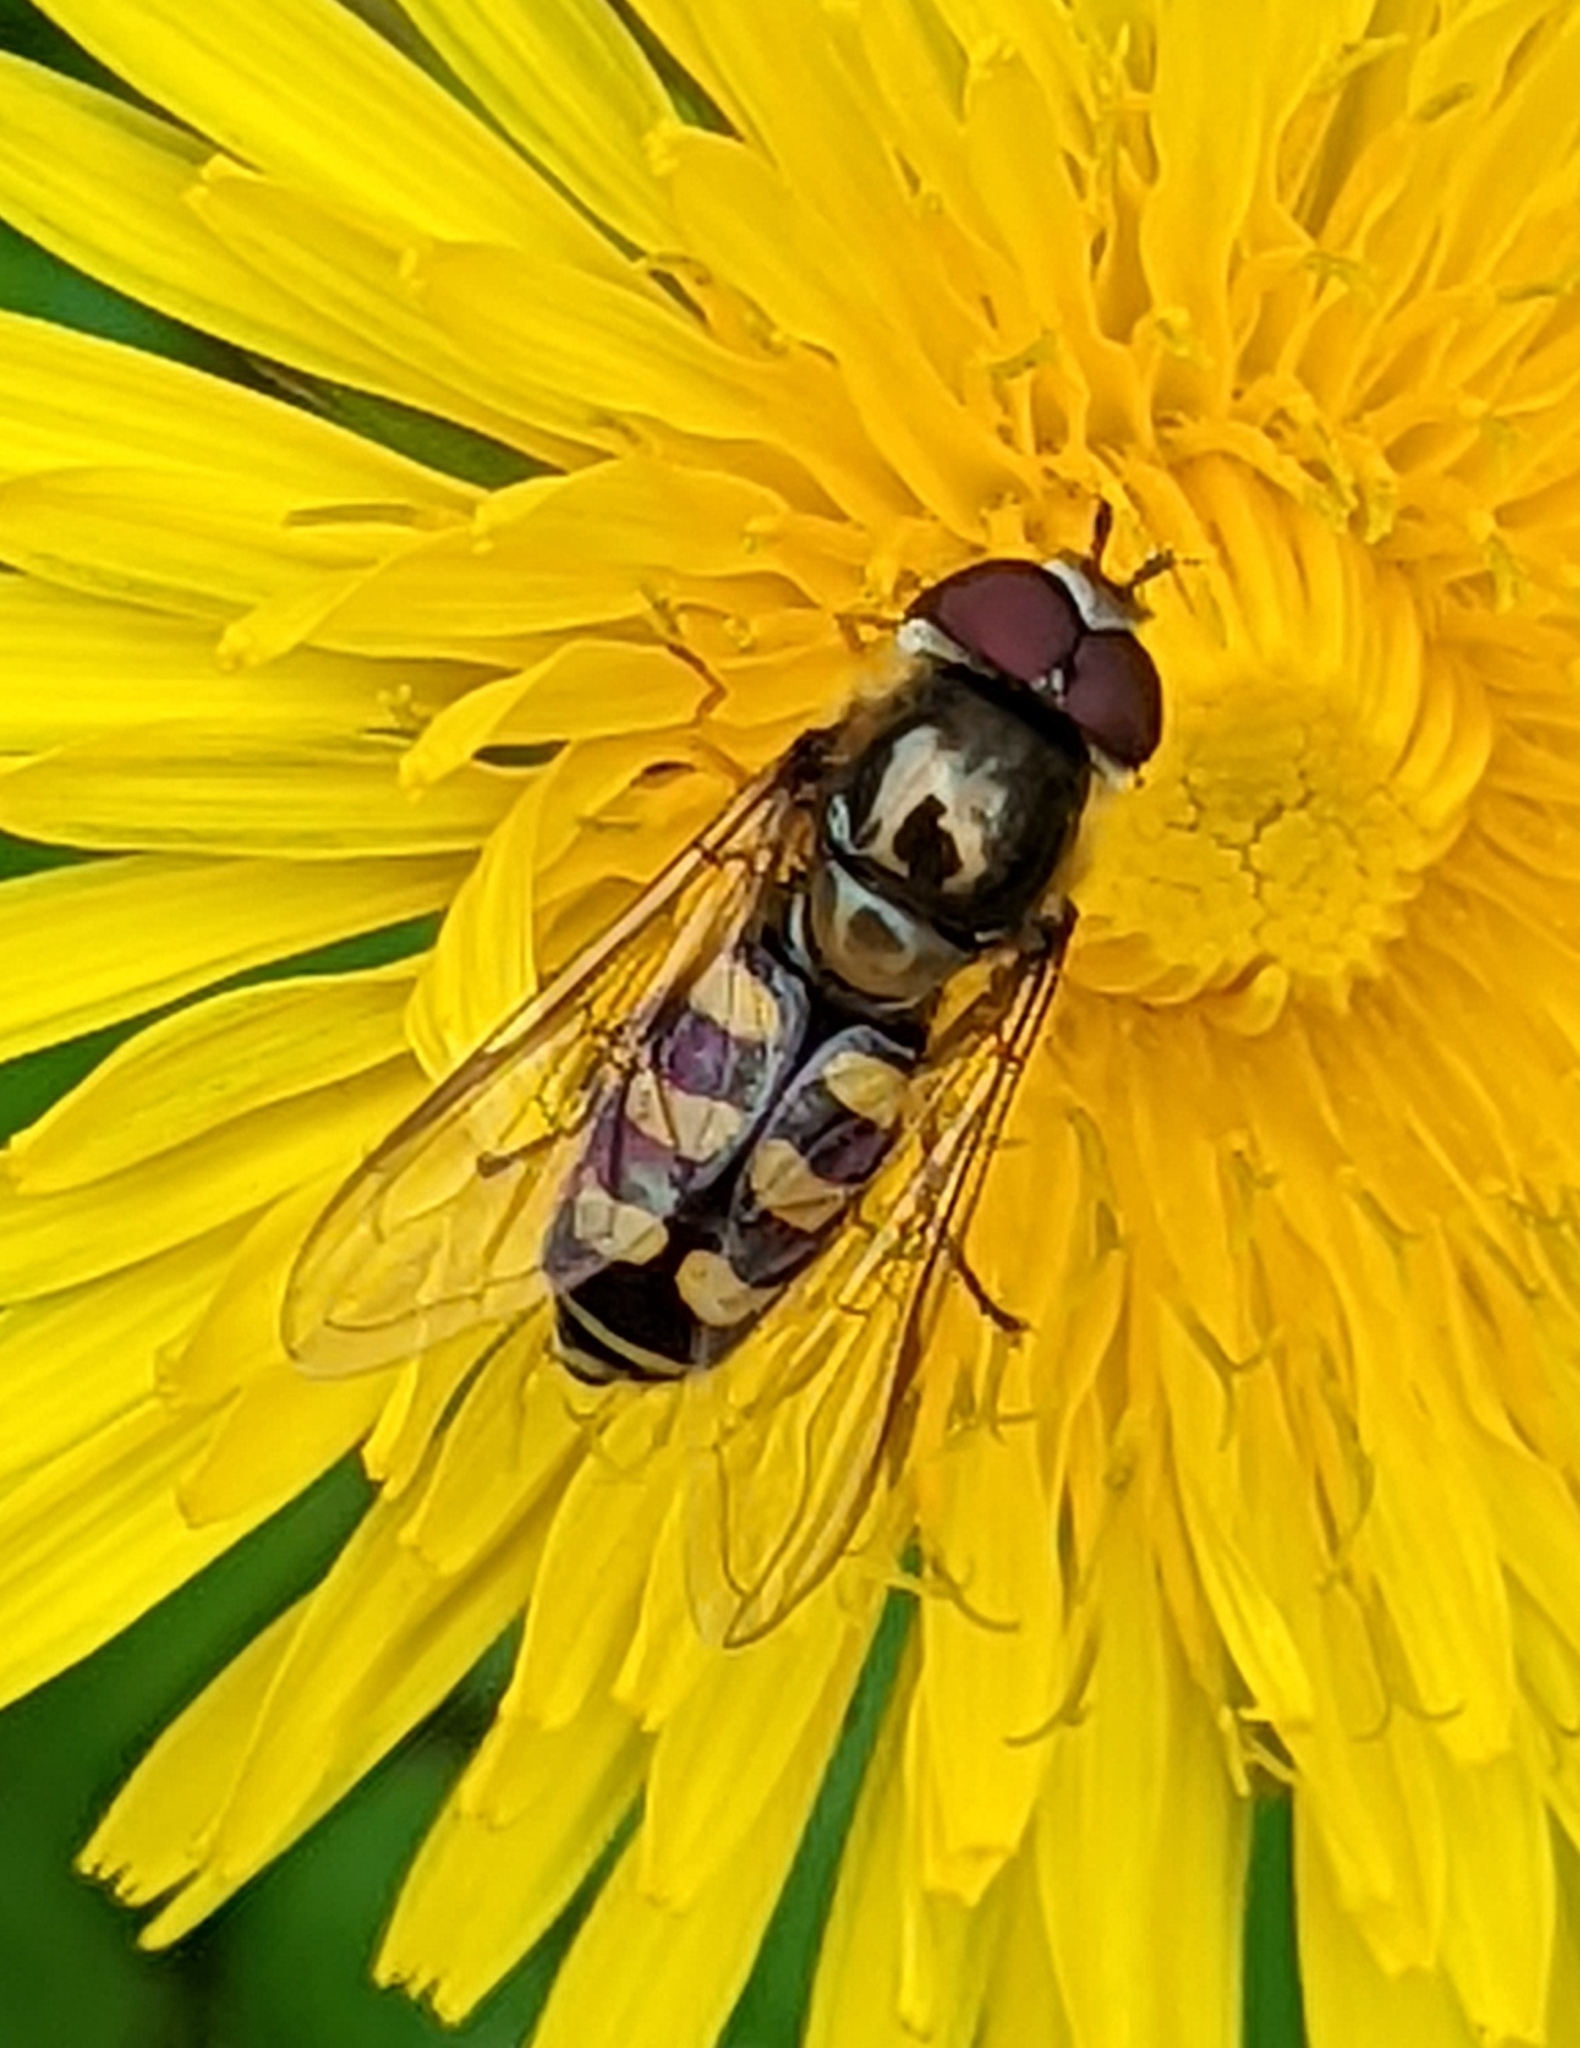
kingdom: Animalia
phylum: Arthropoda
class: Insecta
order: Diptera
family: Syrphidae
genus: Lapposyrphus
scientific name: Lapposyrphus lapponicus
